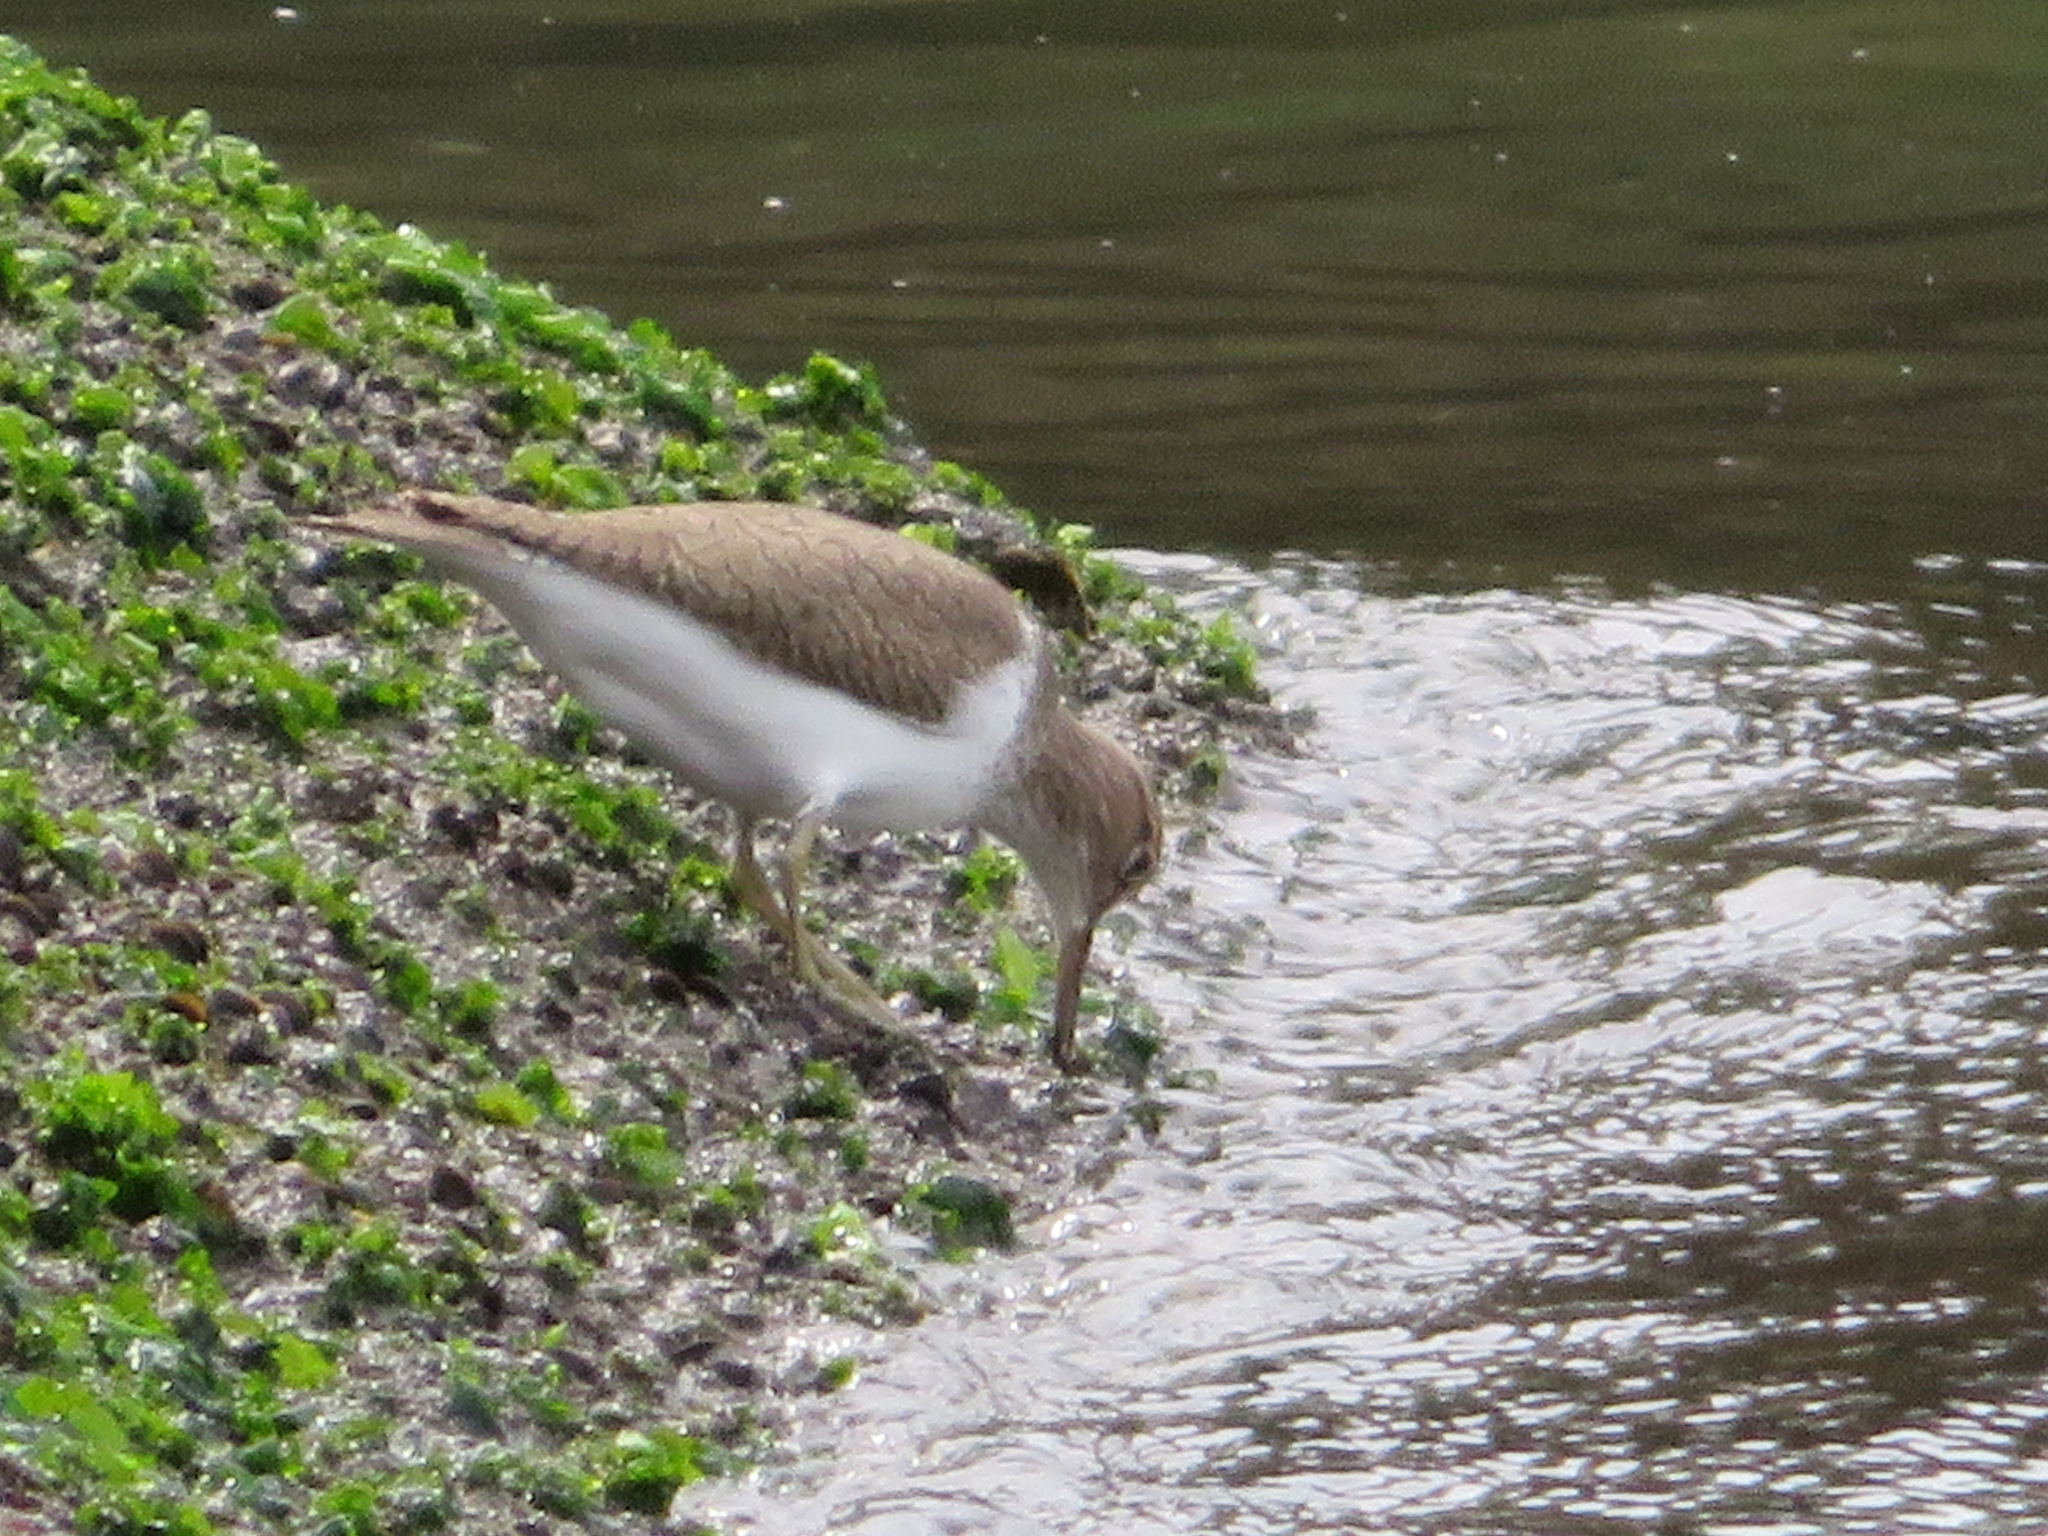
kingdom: Animalia
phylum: Chordata
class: Aves
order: Charadriiformes
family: Scolopacidae
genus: Actitis
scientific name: Actitis hypoleucos
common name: Common sandpiper
